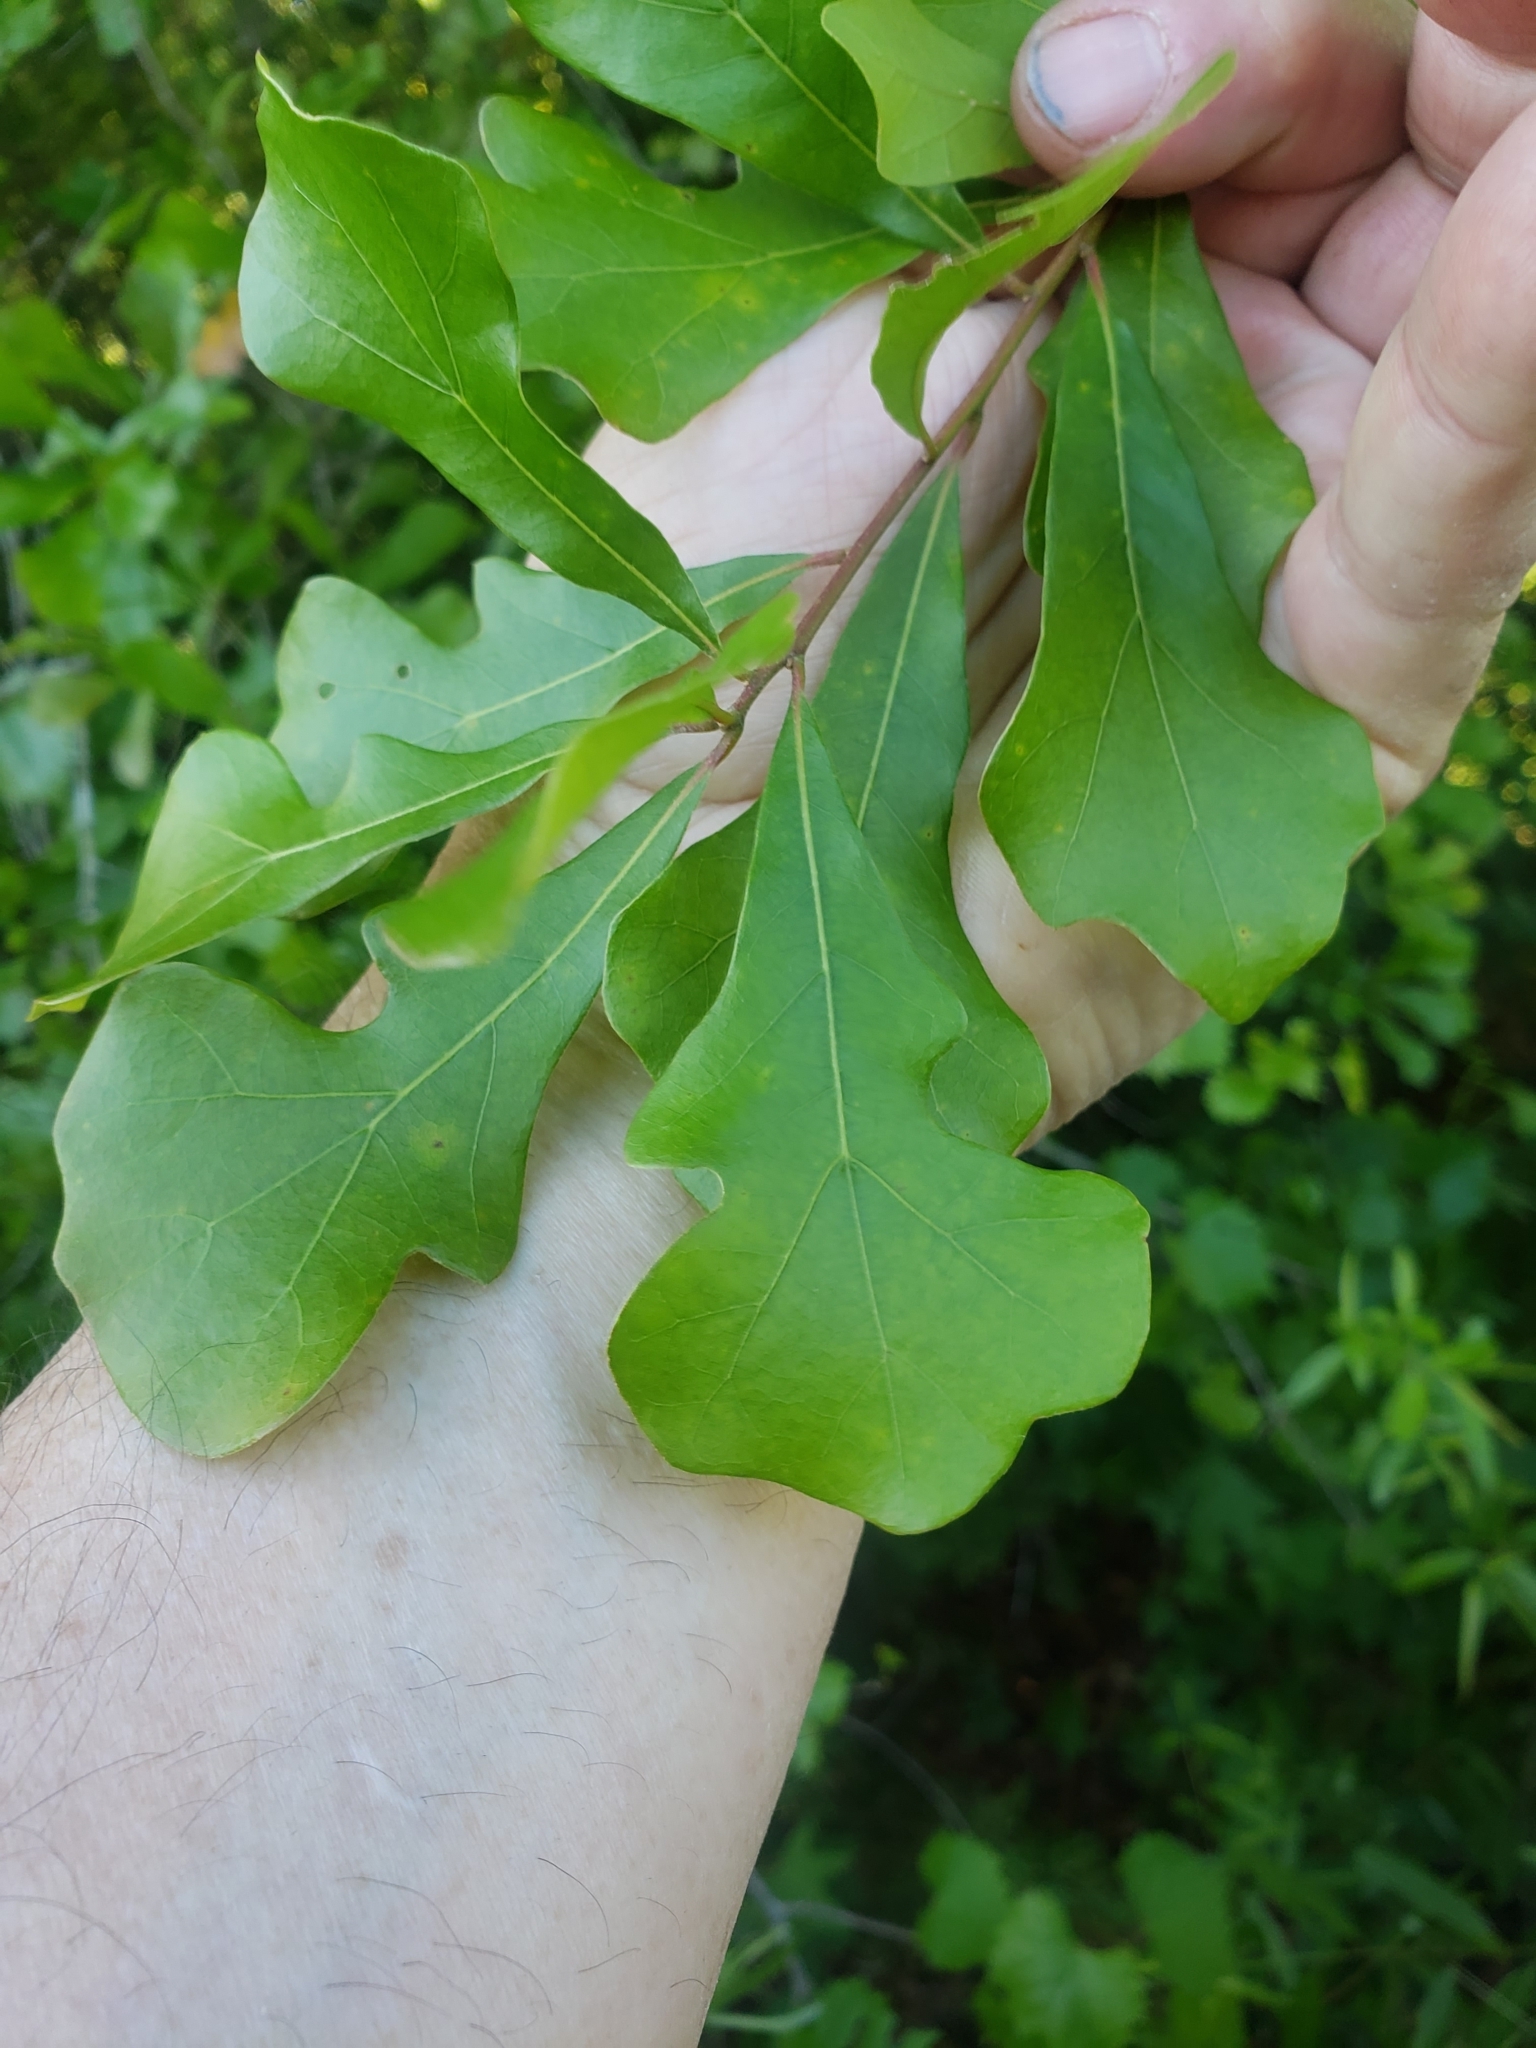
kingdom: Plantae
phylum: Tracheophyta
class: Magnoliopsida
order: Fagales
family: Fagaceae
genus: Quercus
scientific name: Quercus nigra
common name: Water oak
